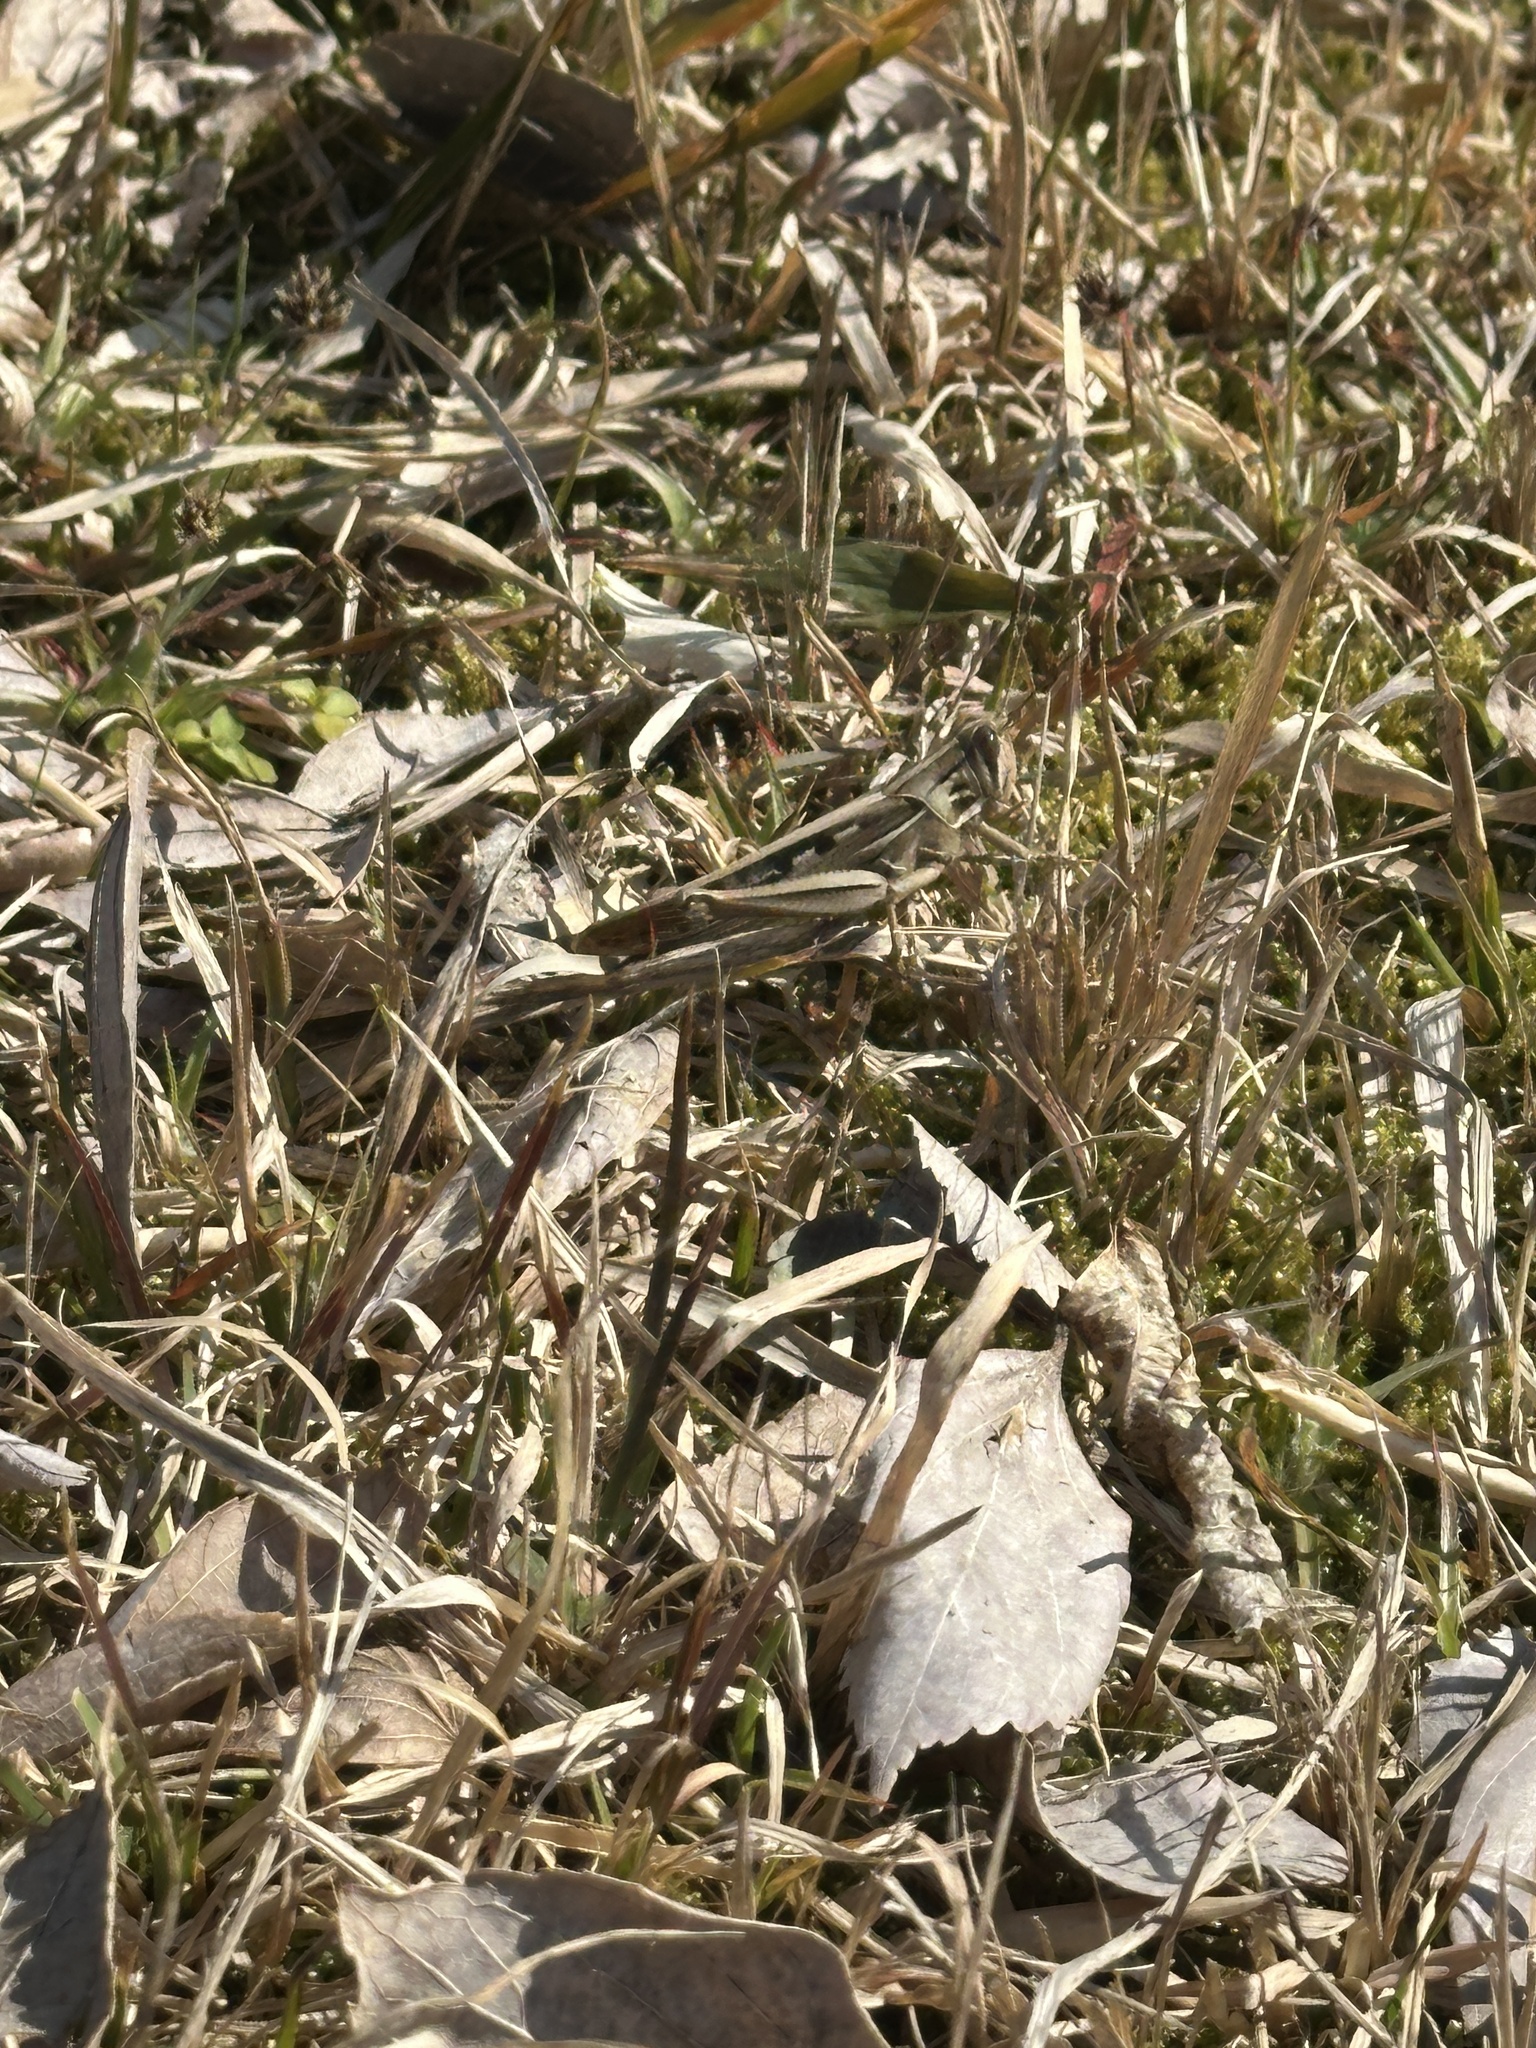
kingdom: Animalia
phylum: Arthropoda
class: Insecta
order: Orthoptera
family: Acrididae
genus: Patanga
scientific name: Patanga japonica
